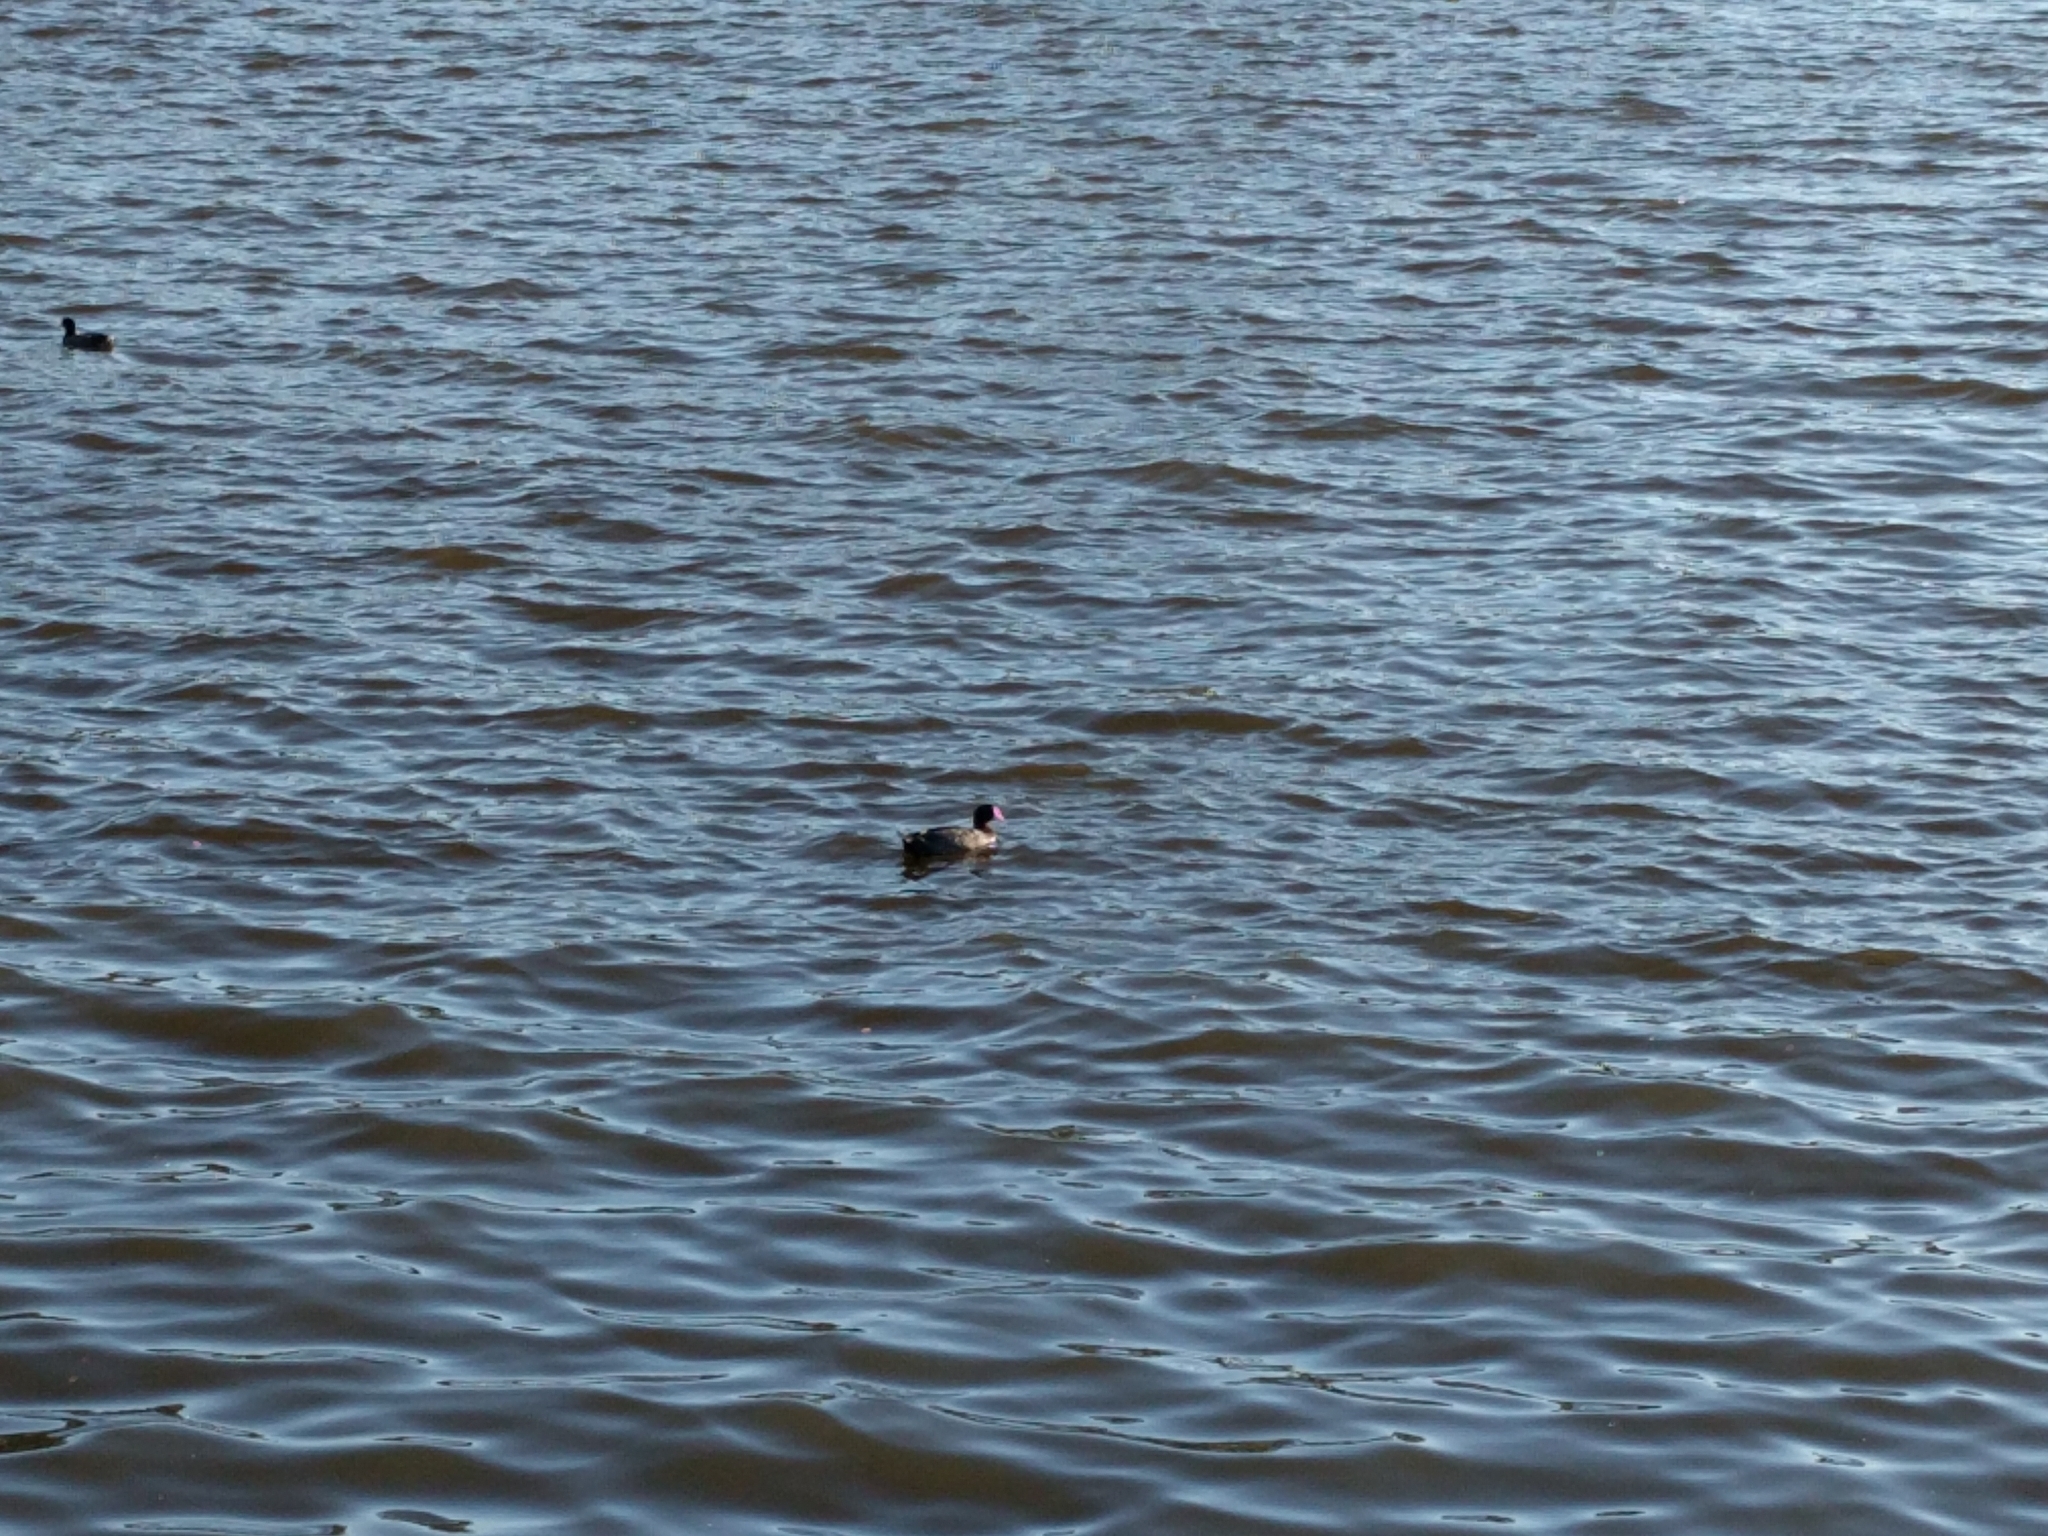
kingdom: Animalia
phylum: Chordata
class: Aves
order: Gruiformes
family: Rallidae
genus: Fulica
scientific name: Fulica americana
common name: American coot
